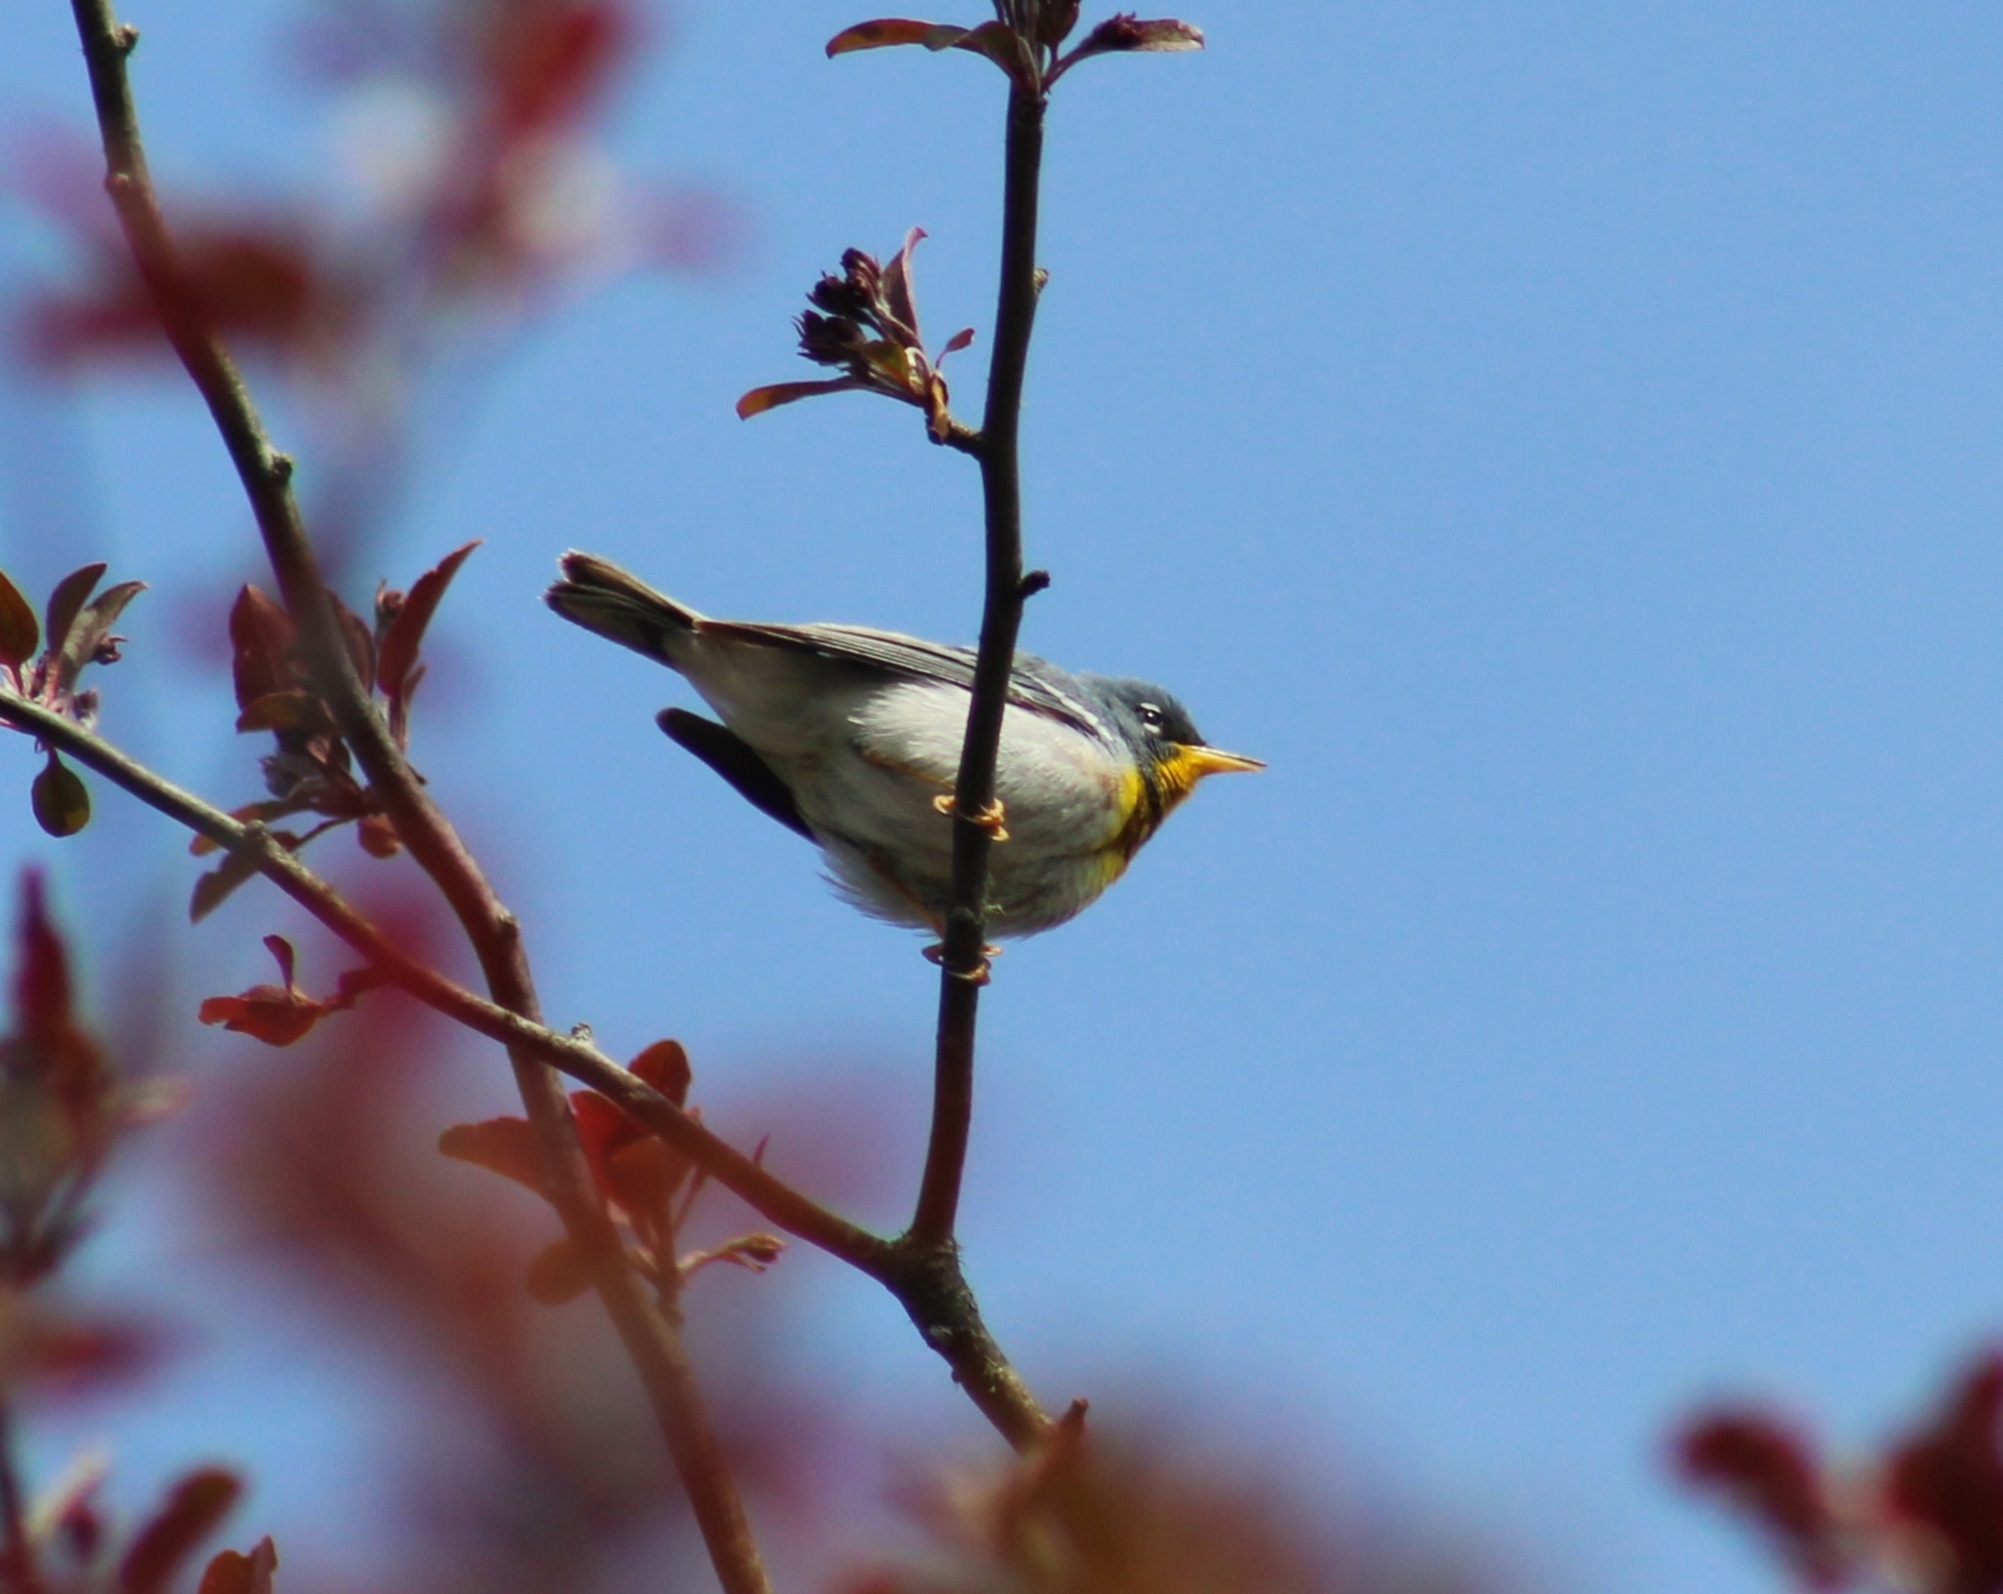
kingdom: Animalia
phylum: Chordata
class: Aves
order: Passeriformes
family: Parulidae
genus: Setophaga
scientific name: Setophaga americana
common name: Northern parula
